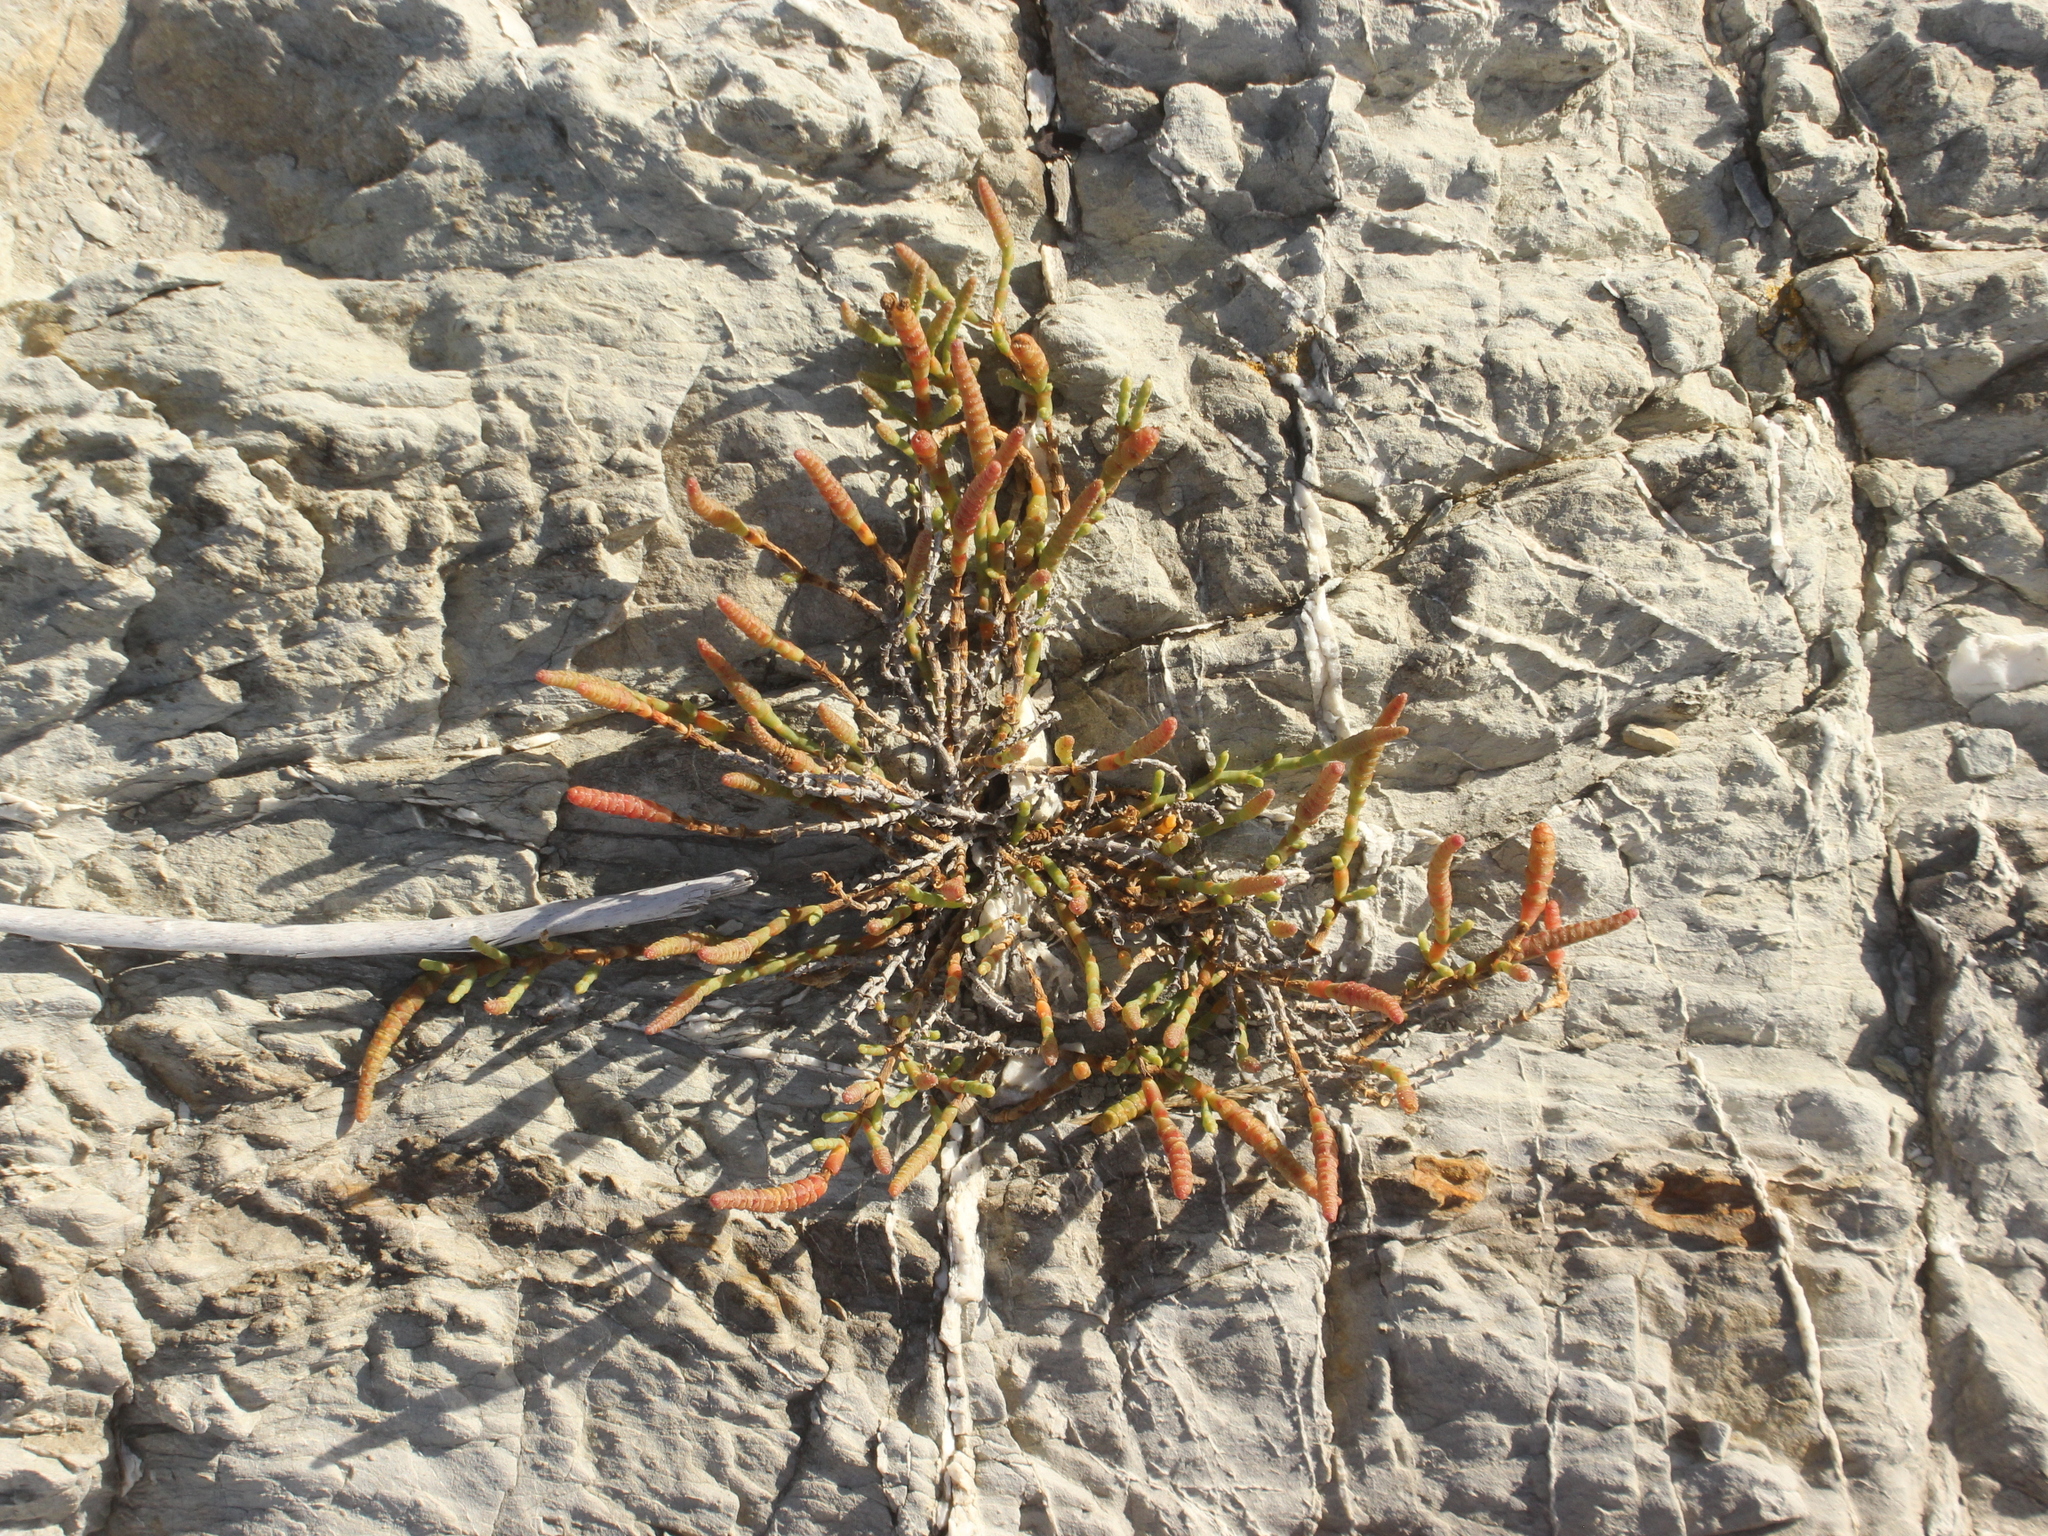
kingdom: Plantae
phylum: Tracheophyta
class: Magnoliopsida
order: Caryophyllales
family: Amaranthaceae
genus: Salicornia
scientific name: Salicornia quinqueflora
